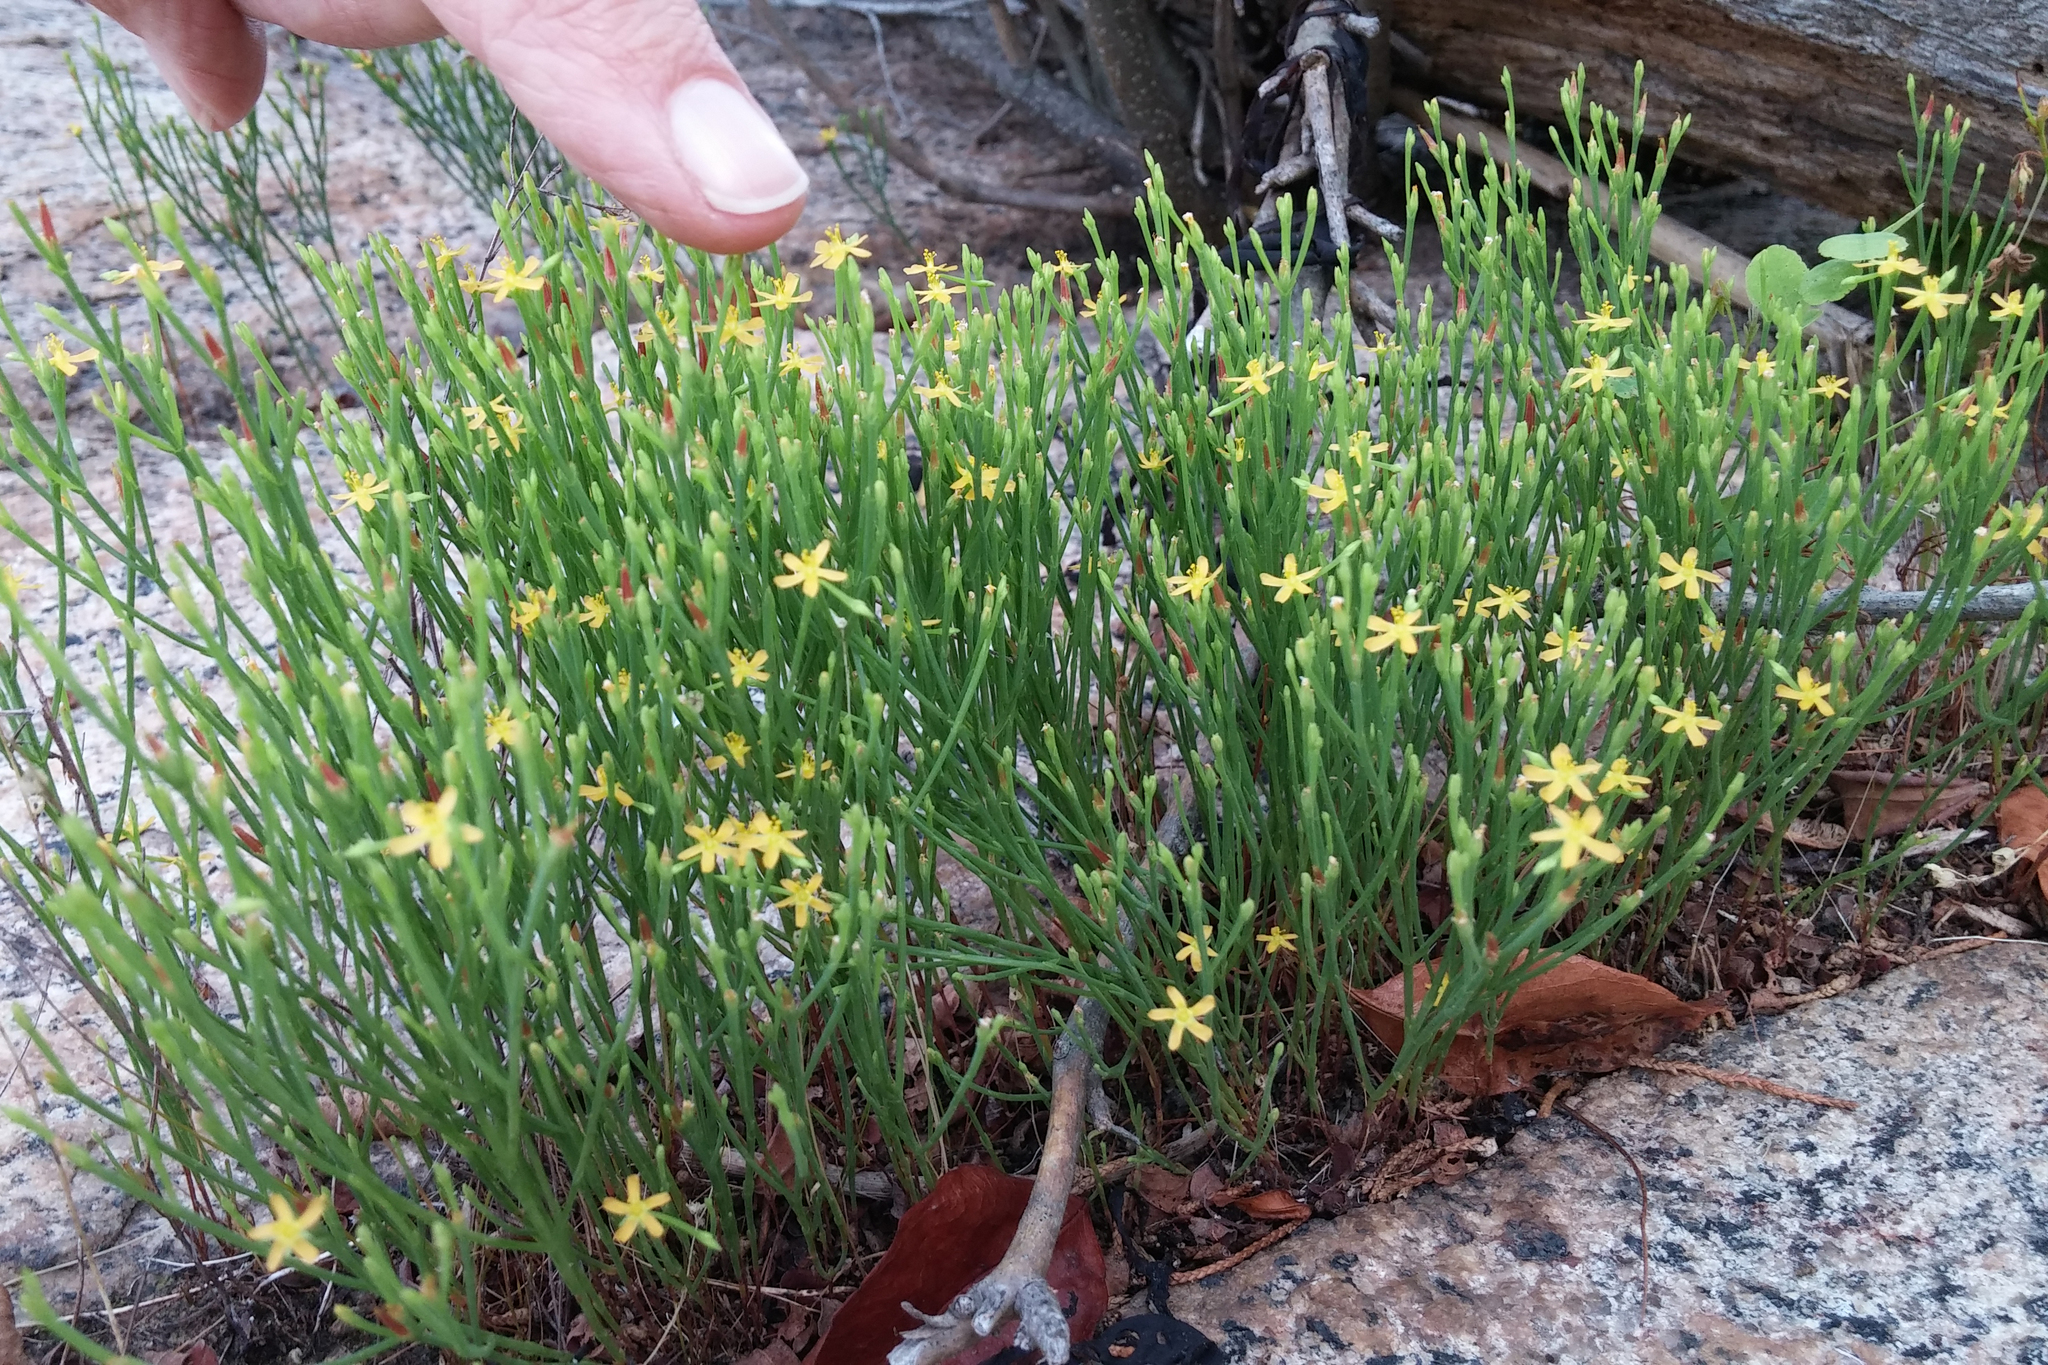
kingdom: Plantae
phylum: Tracheophyta
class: Magnoliopsida
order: Malpighiales
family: Hypericaceae
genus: Hypericum
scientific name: Hypericum gentianoides
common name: Gentian-leaved st. john's-wort
